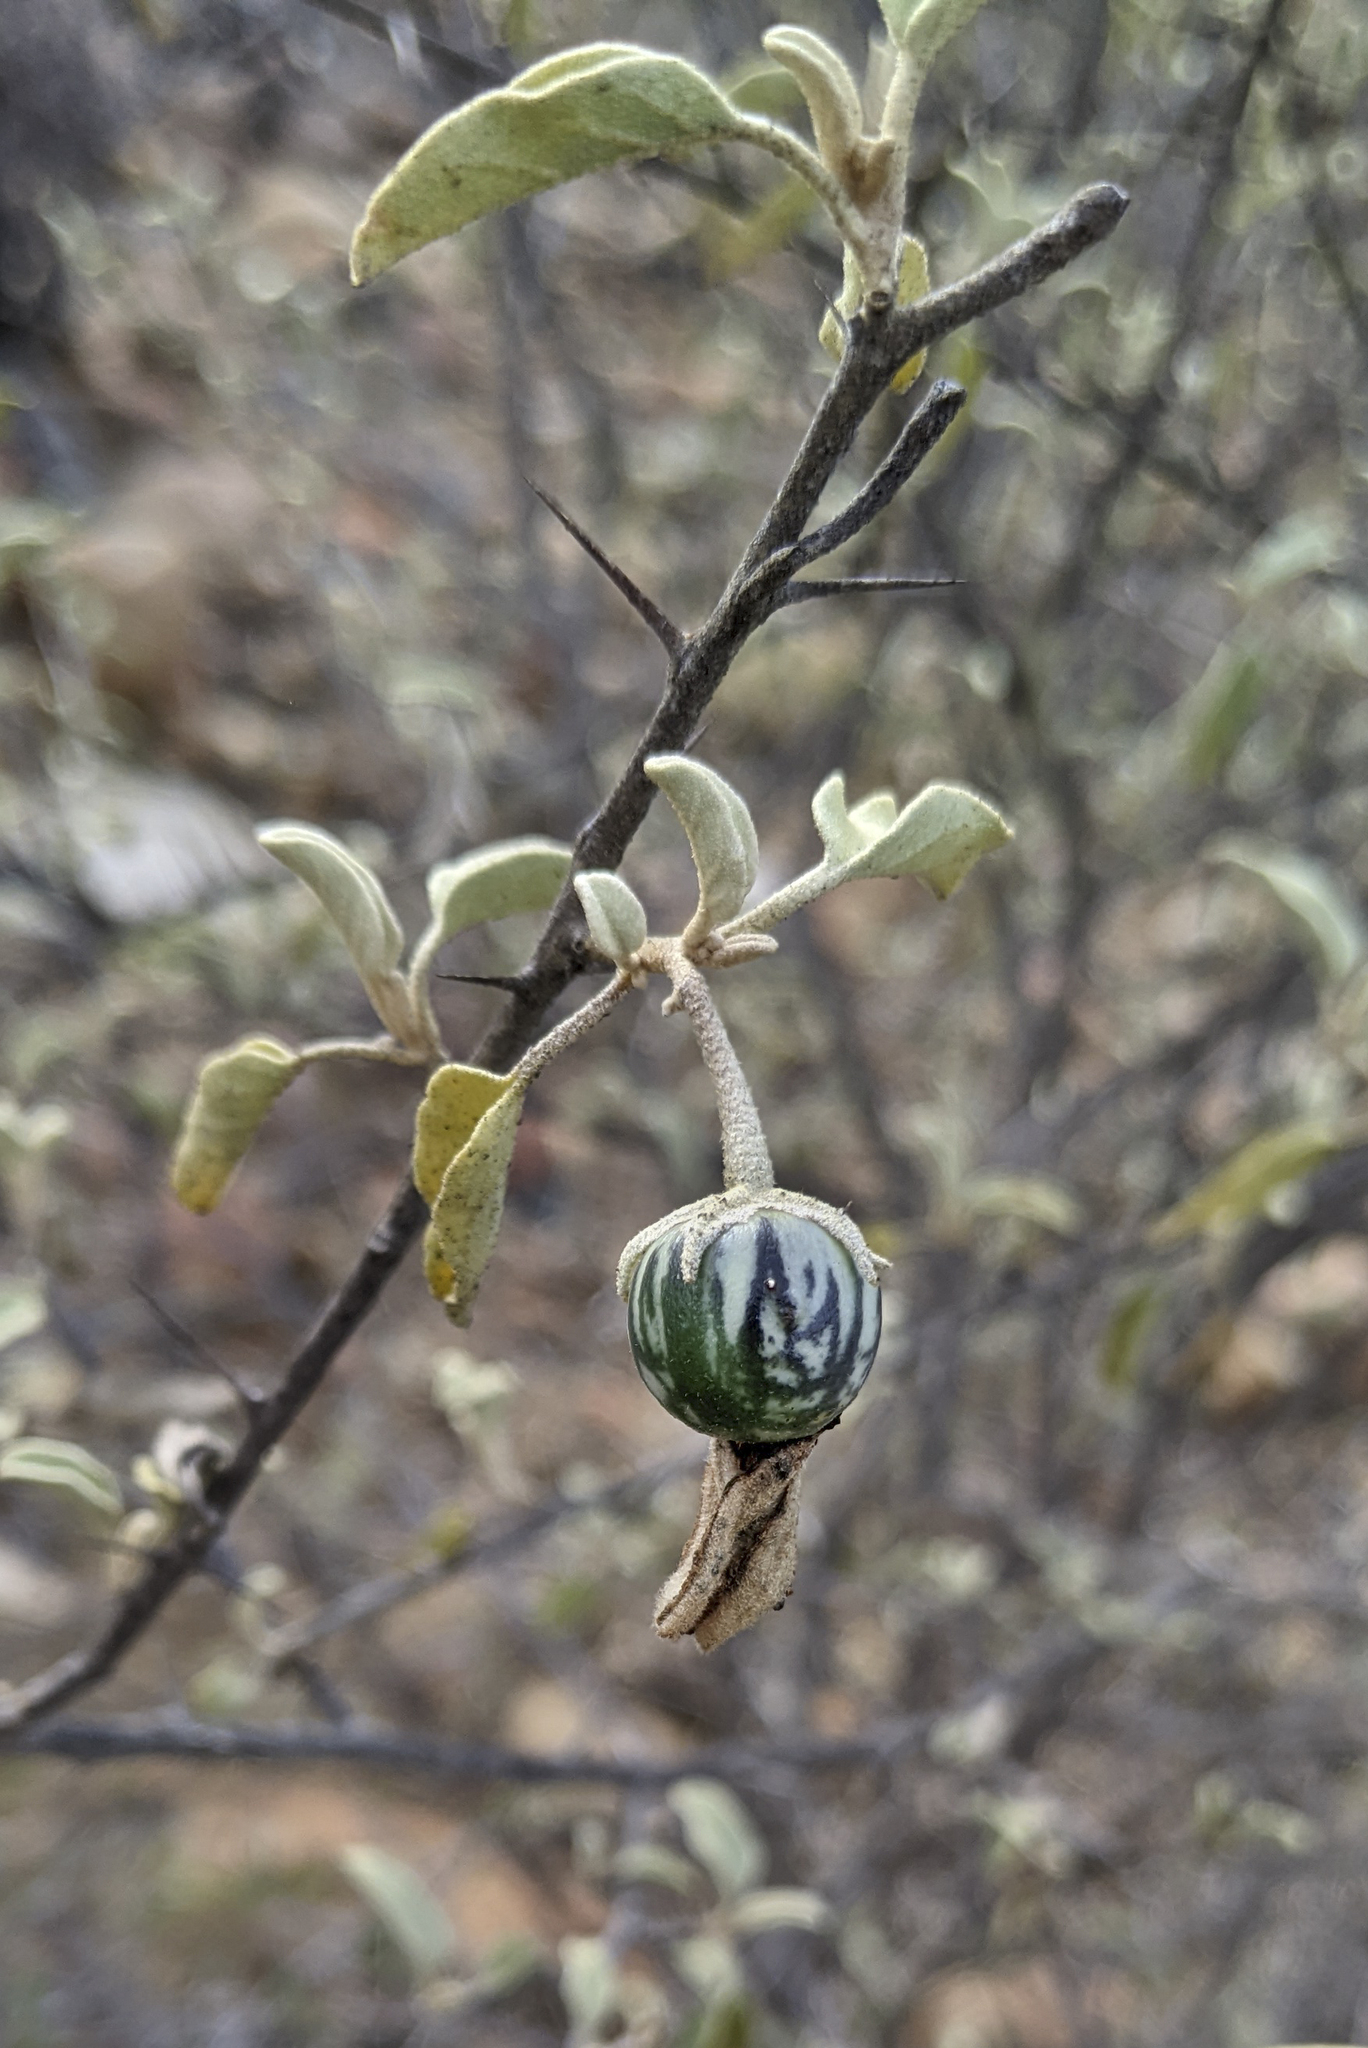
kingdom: Plantae
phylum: Tracheophyta
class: Magnoliopsida
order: Solanales
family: Solanaceae
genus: Solanum
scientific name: Solanum hindsianum
